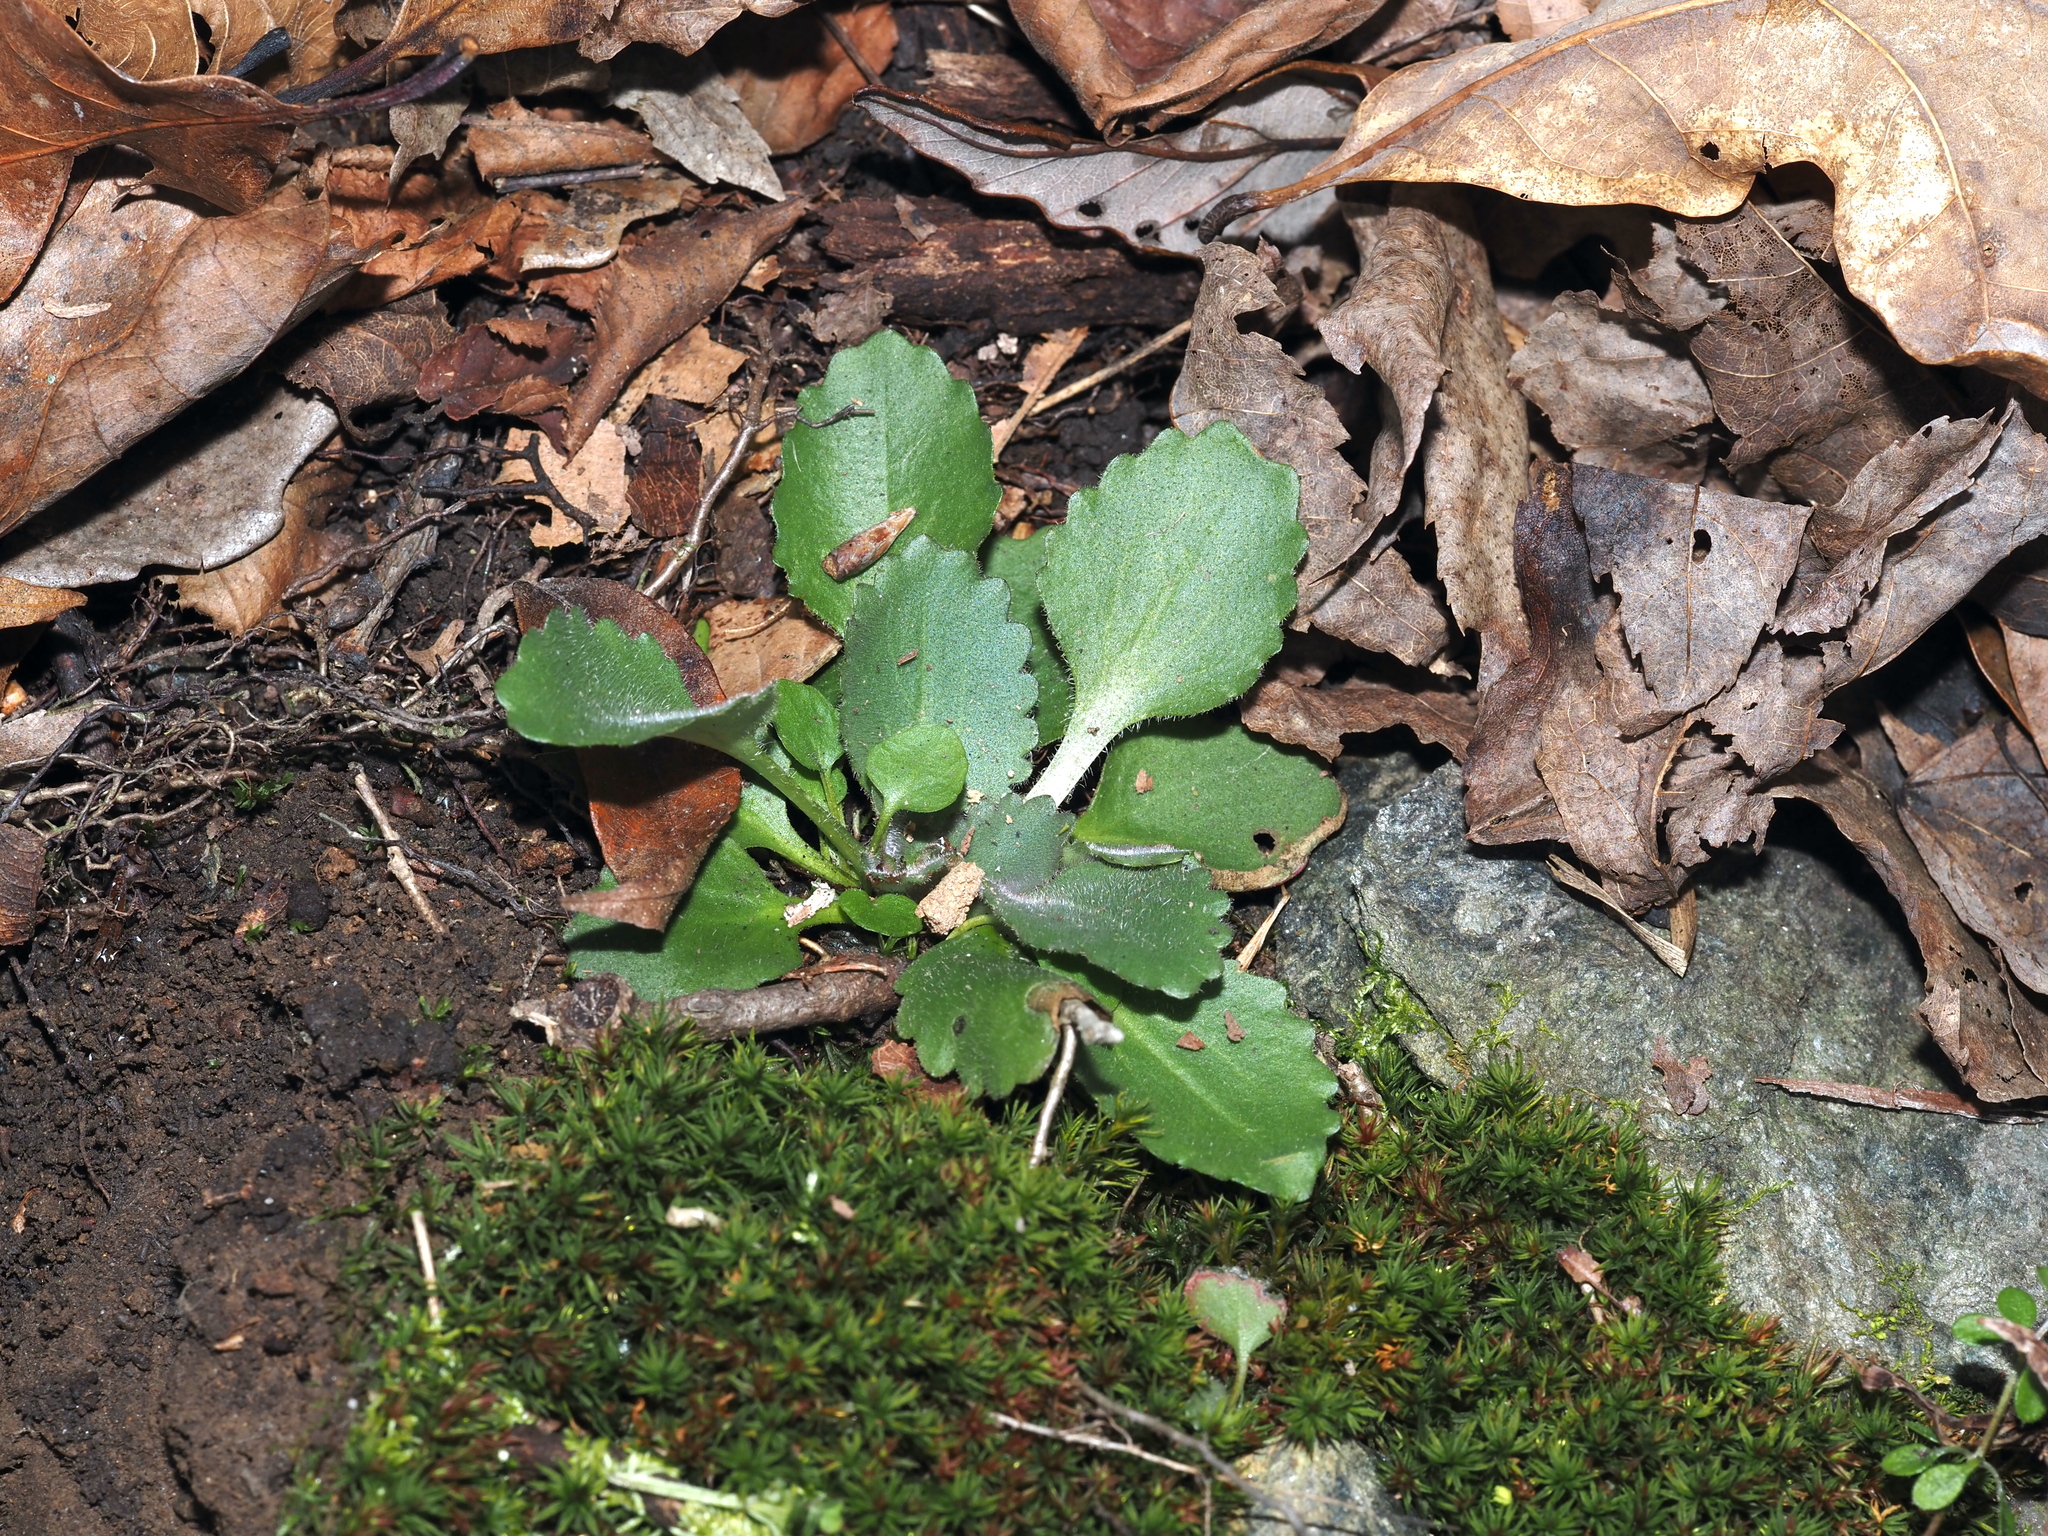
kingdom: Plantae
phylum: Tracheophyta
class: Magnoliopsida
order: Saxifragales
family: Saxifragaceae
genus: Micranthes
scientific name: Micranthes virginiensis
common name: Early saxifrage
